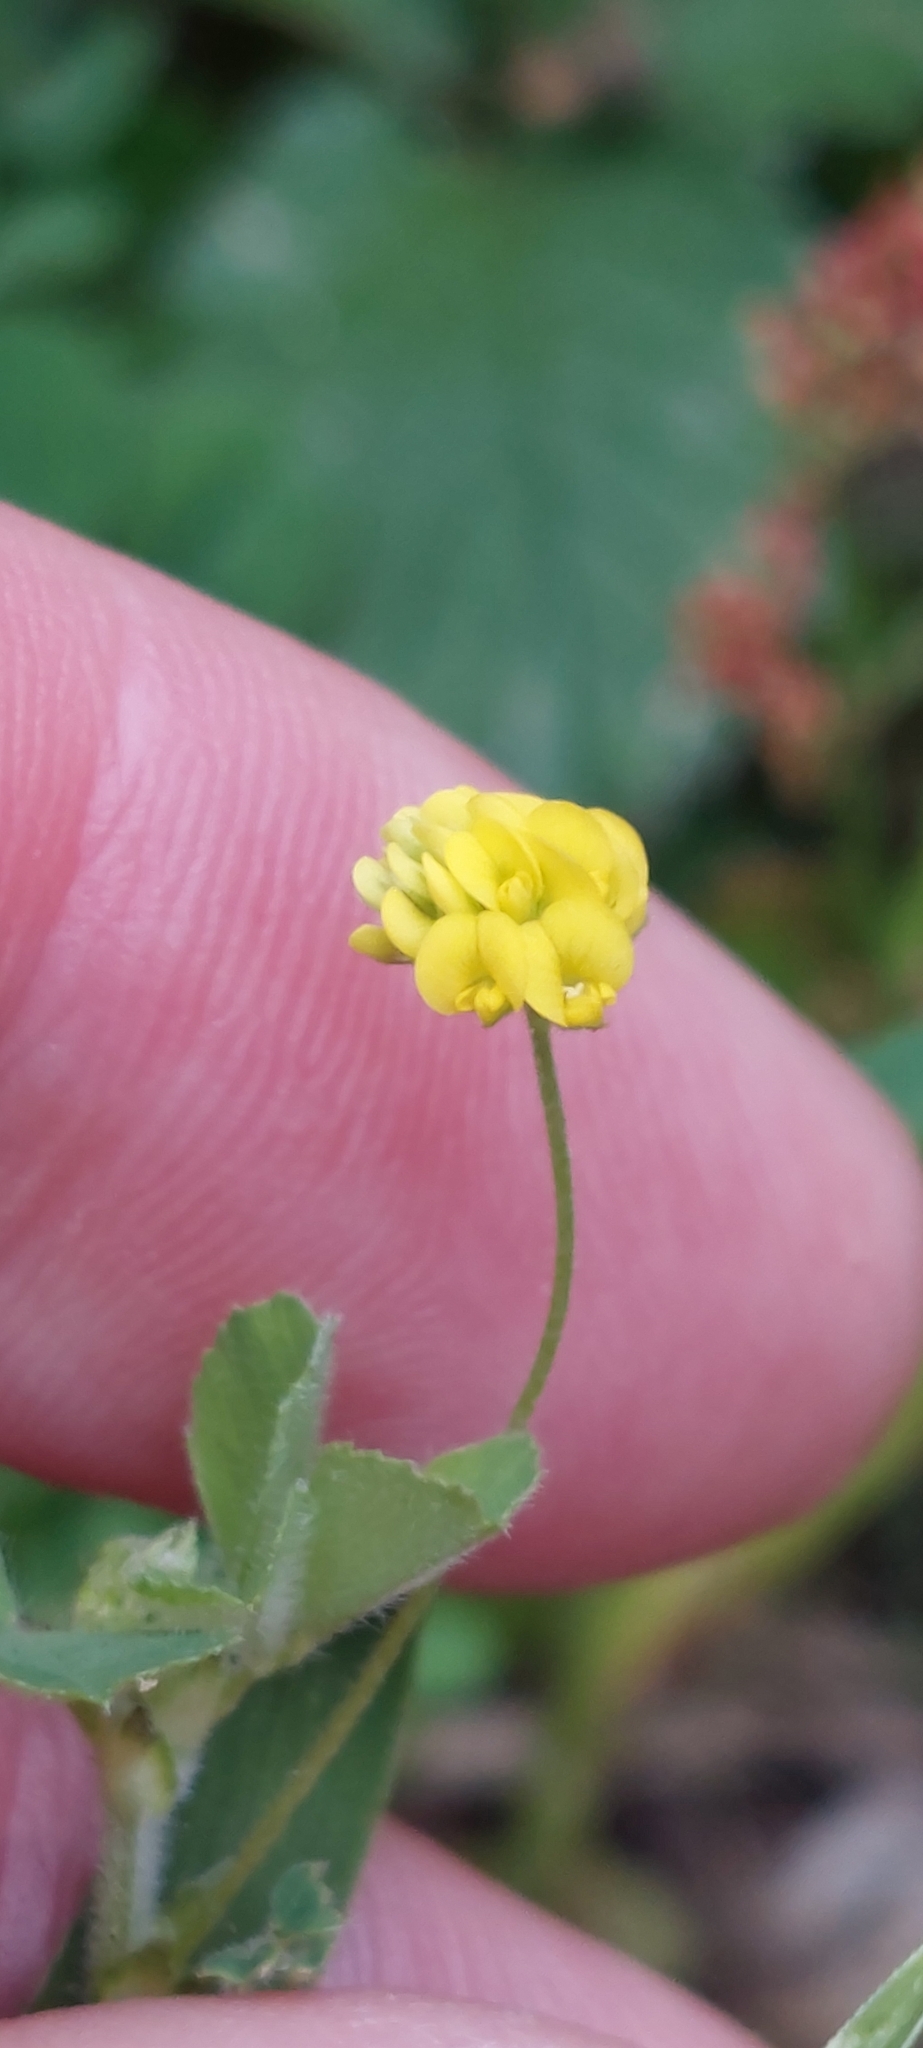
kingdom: Plantae
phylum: Tracheophyta
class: Magnoliopsida
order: Fabales
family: Fabaceae
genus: Medicago
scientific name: Medicago lupulina
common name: Black medick
